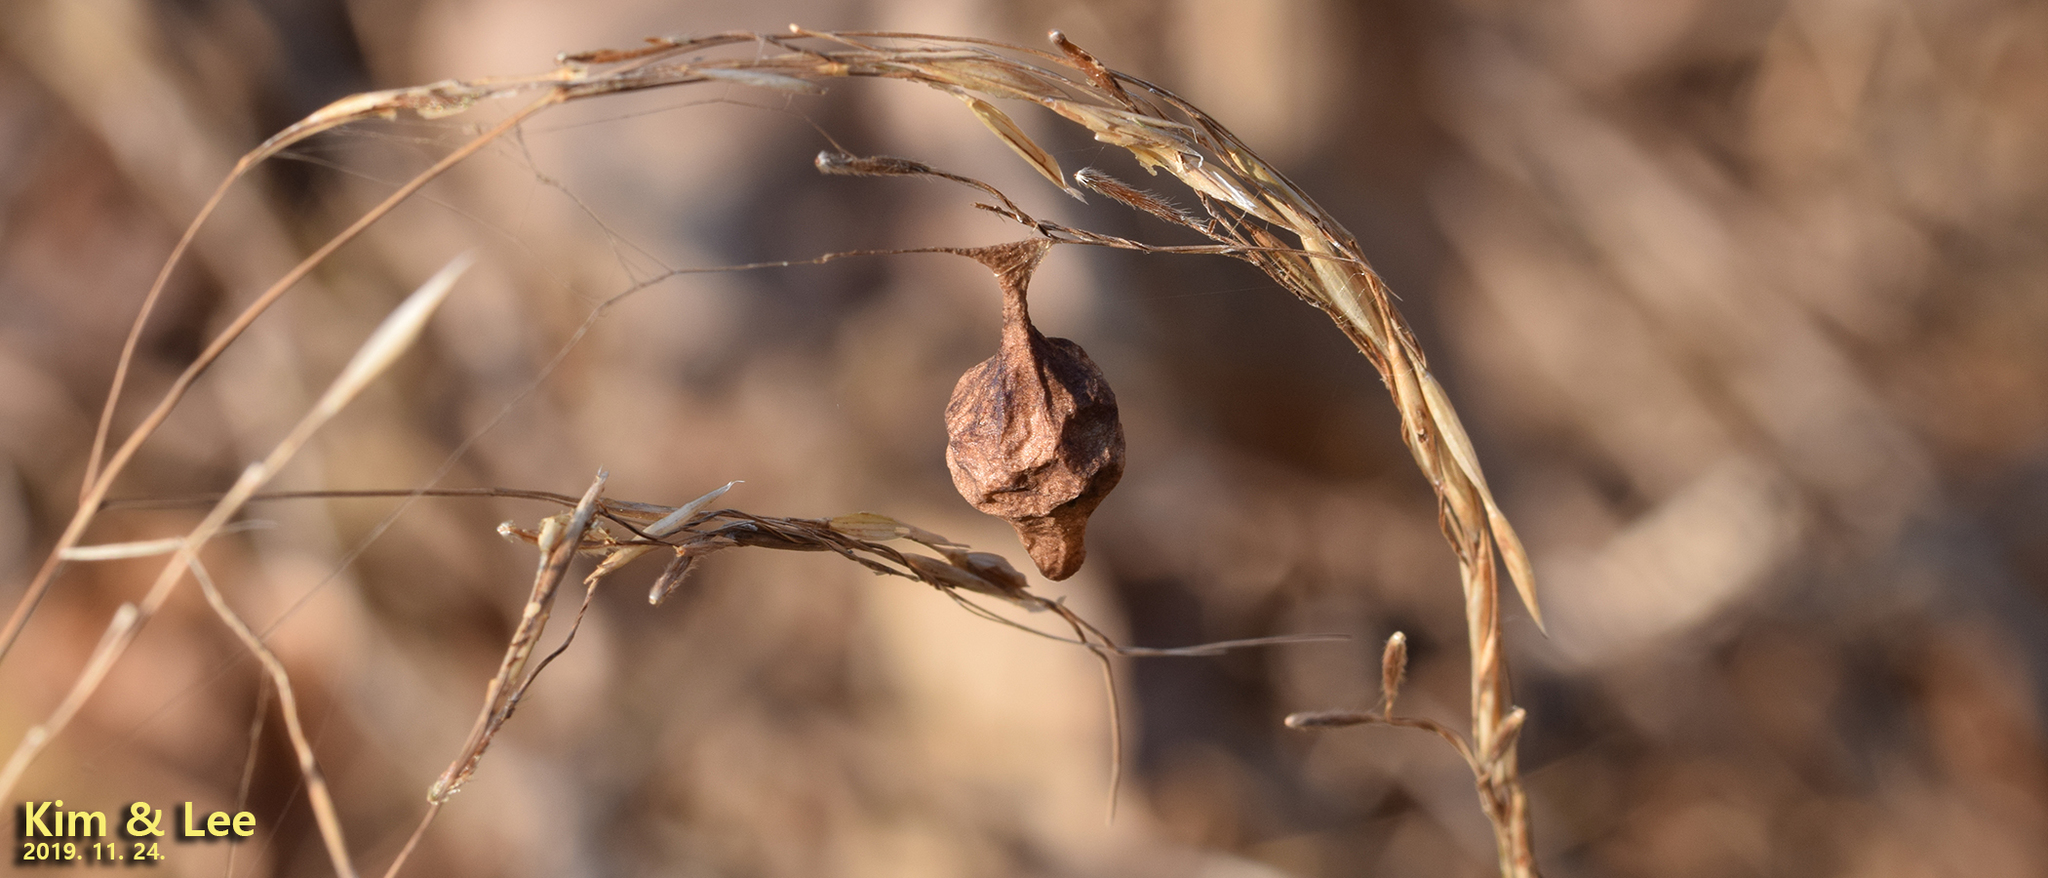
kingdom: Animalia
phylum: Arthropoda
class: Arachnida
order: Araneae
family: Araneidae
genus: Cyrtarachne
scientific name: Cyrtarachne inaequalis
